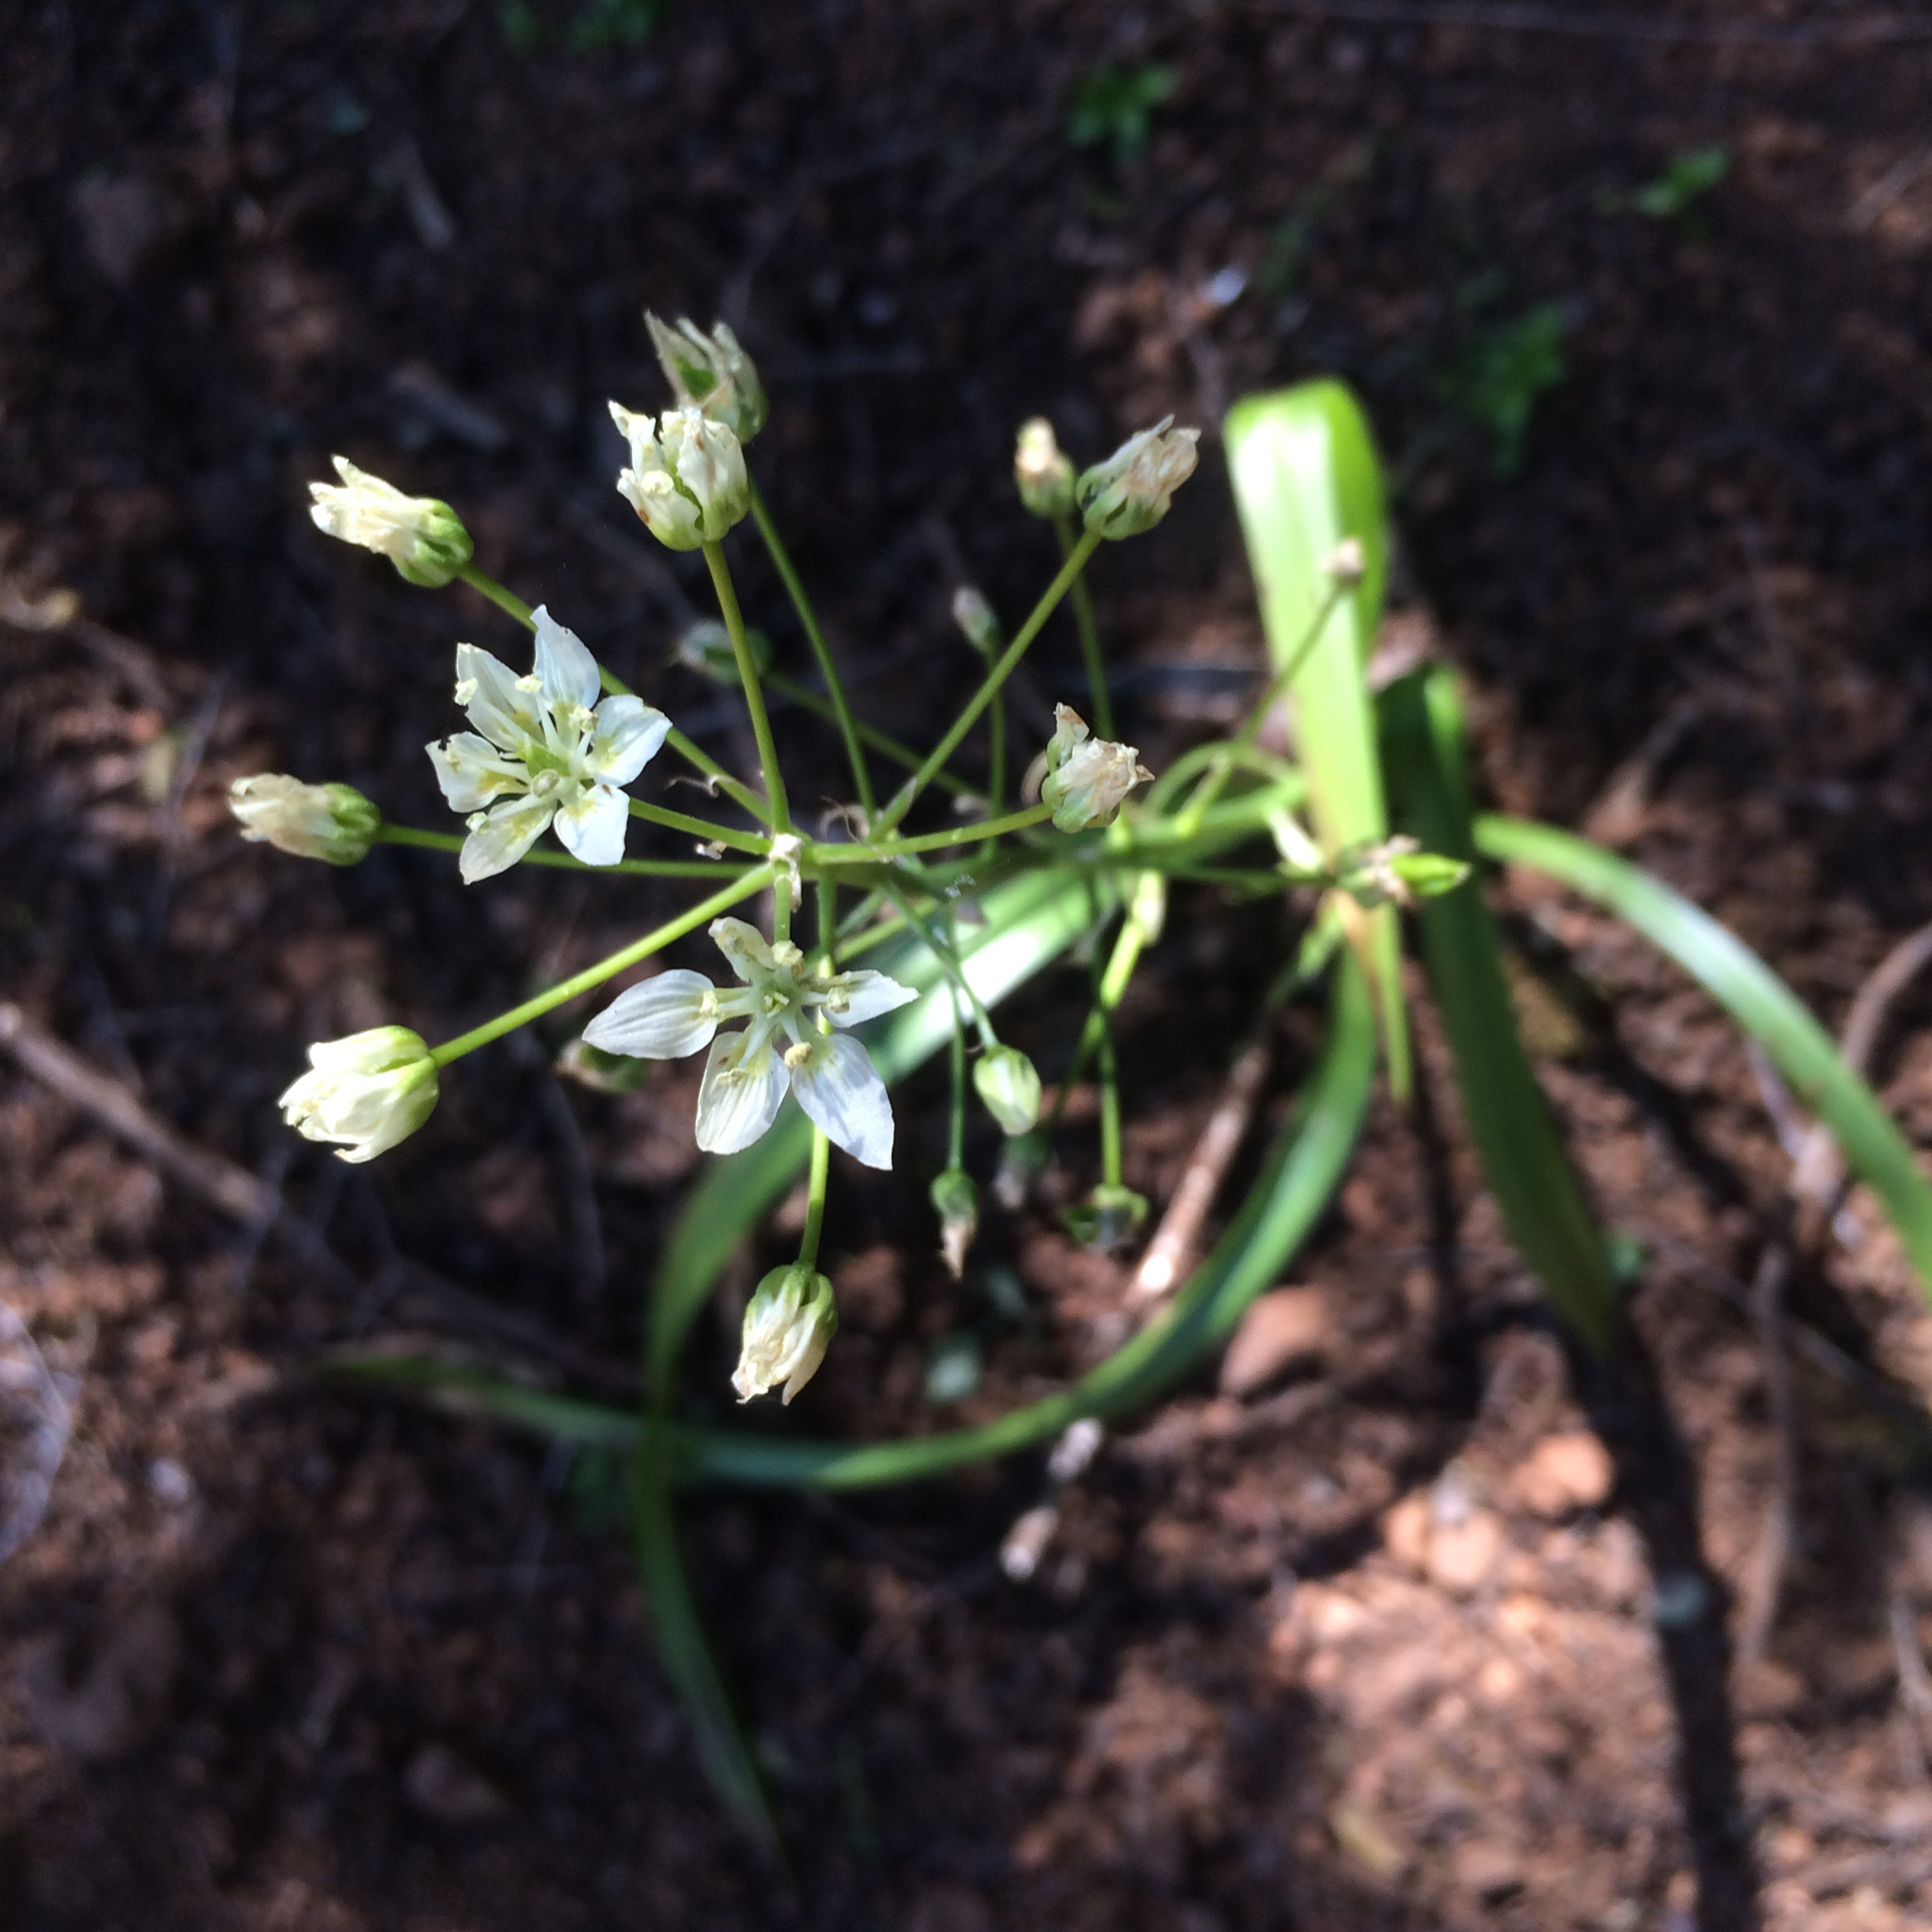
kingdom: Plantae
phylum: Tracheophyta
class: Liliopsida
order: Liliales
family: Melanthiaceae
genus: Toxicoscordion
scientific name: Toxicoscordion fremontii
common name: Fremont's death camas
